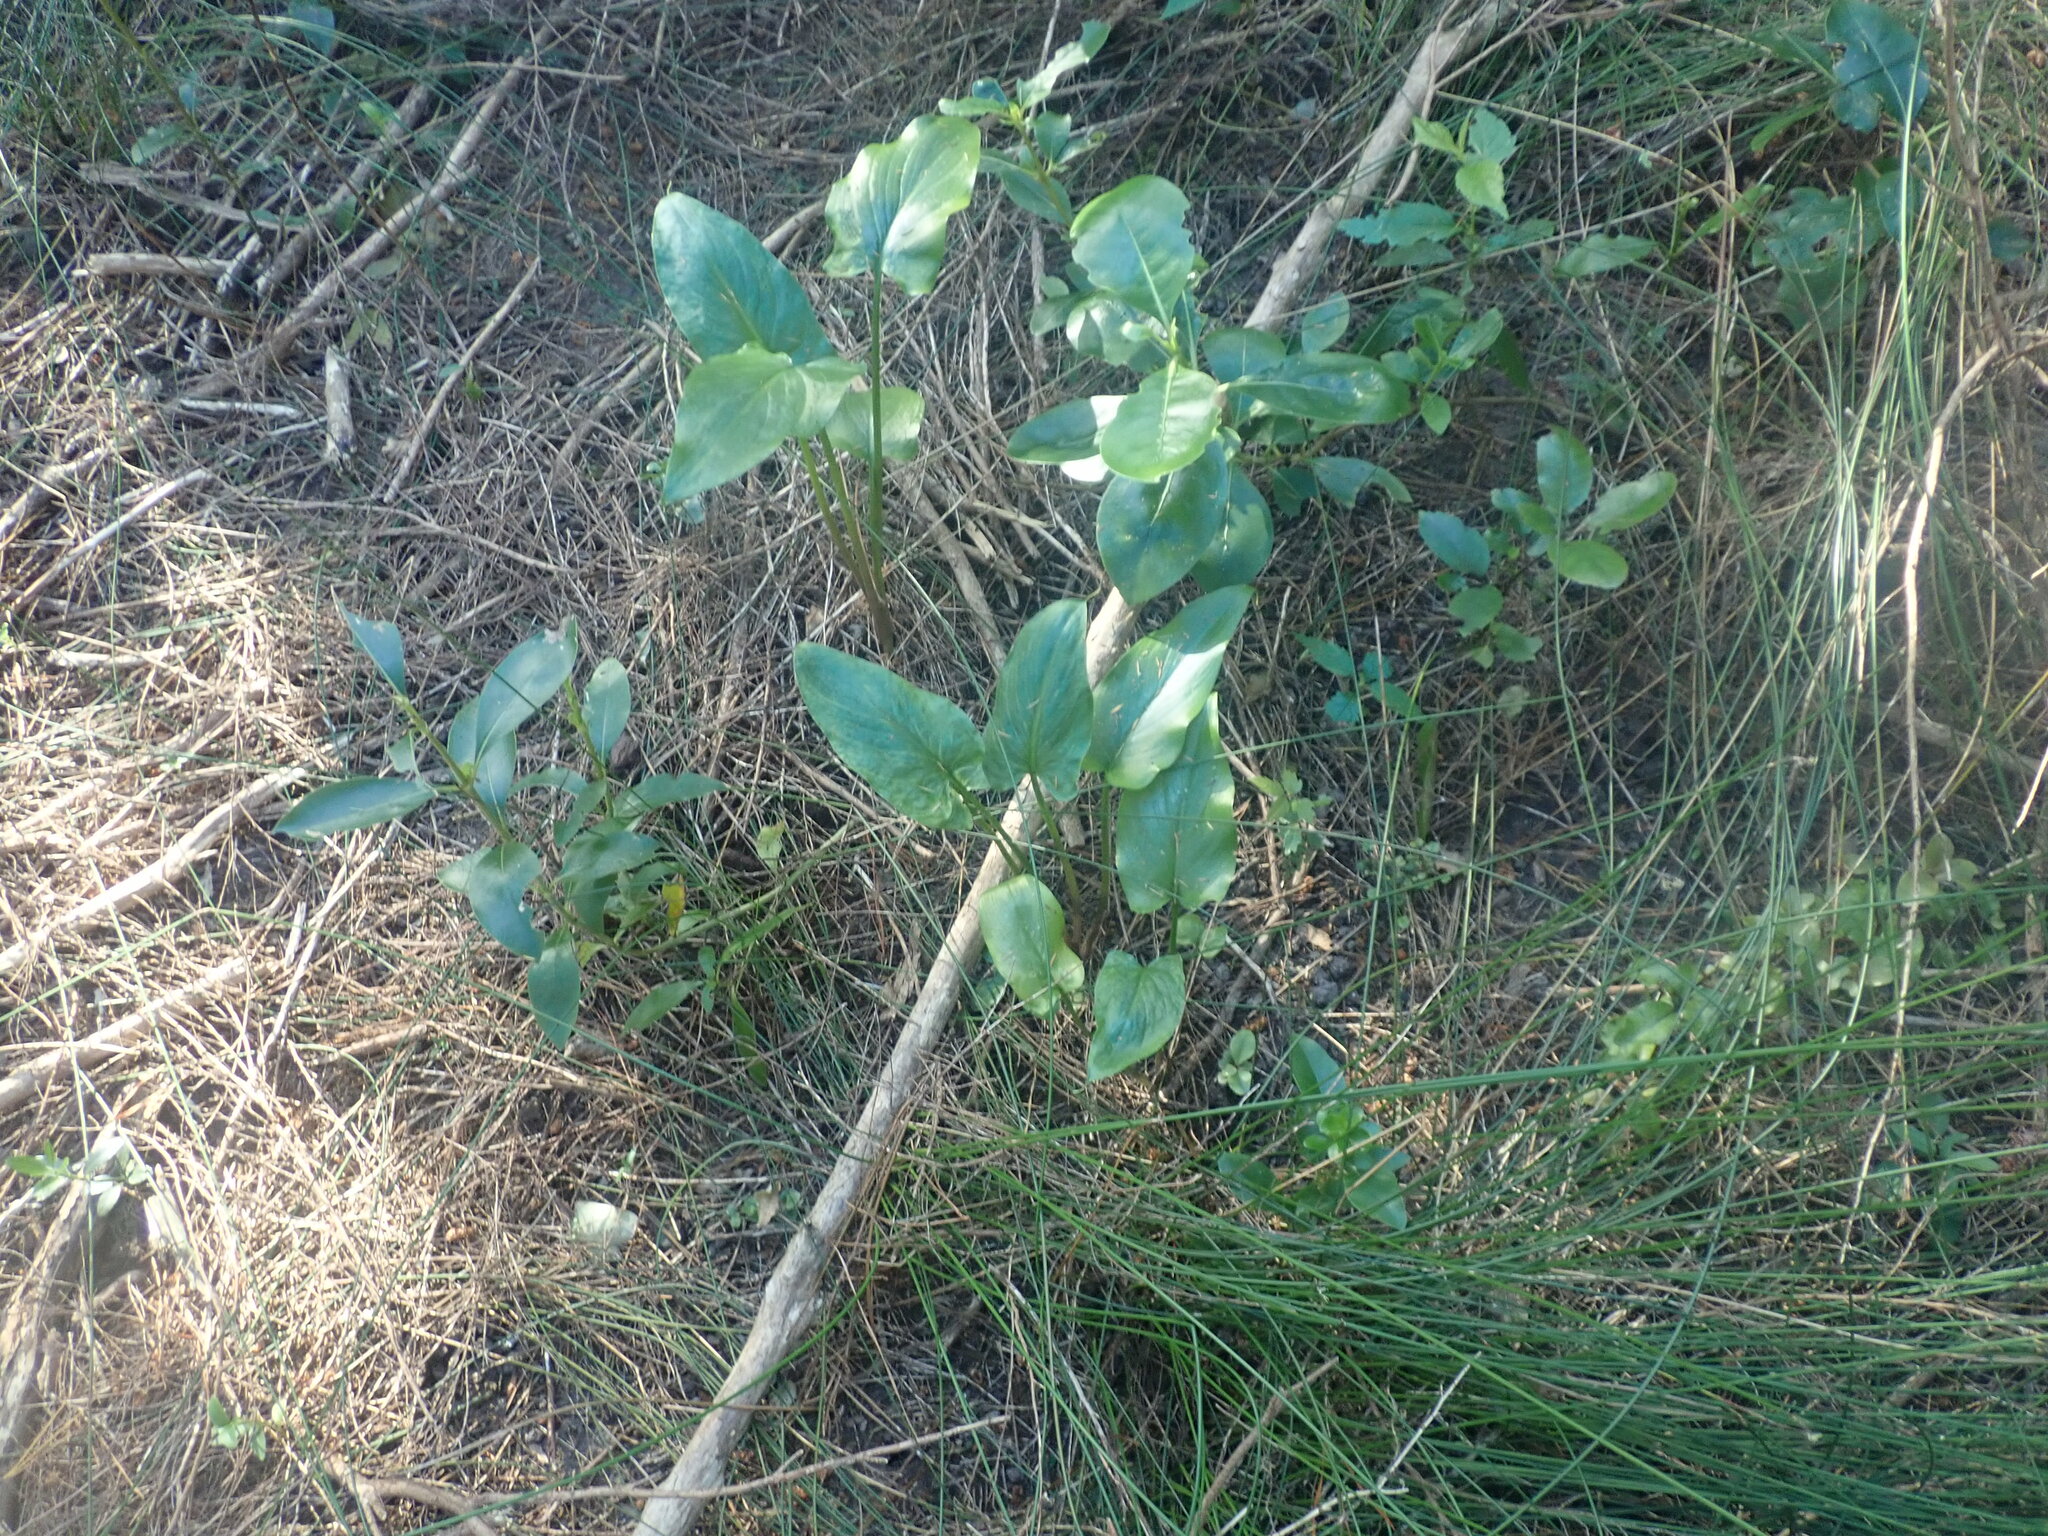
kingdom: Plantae
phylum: Tracheophyta
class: Liliopsida
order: Alismatales
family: Araceae
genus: Zantedeschia
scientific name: Zantedeschia aethiopica
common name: Altar-lily
